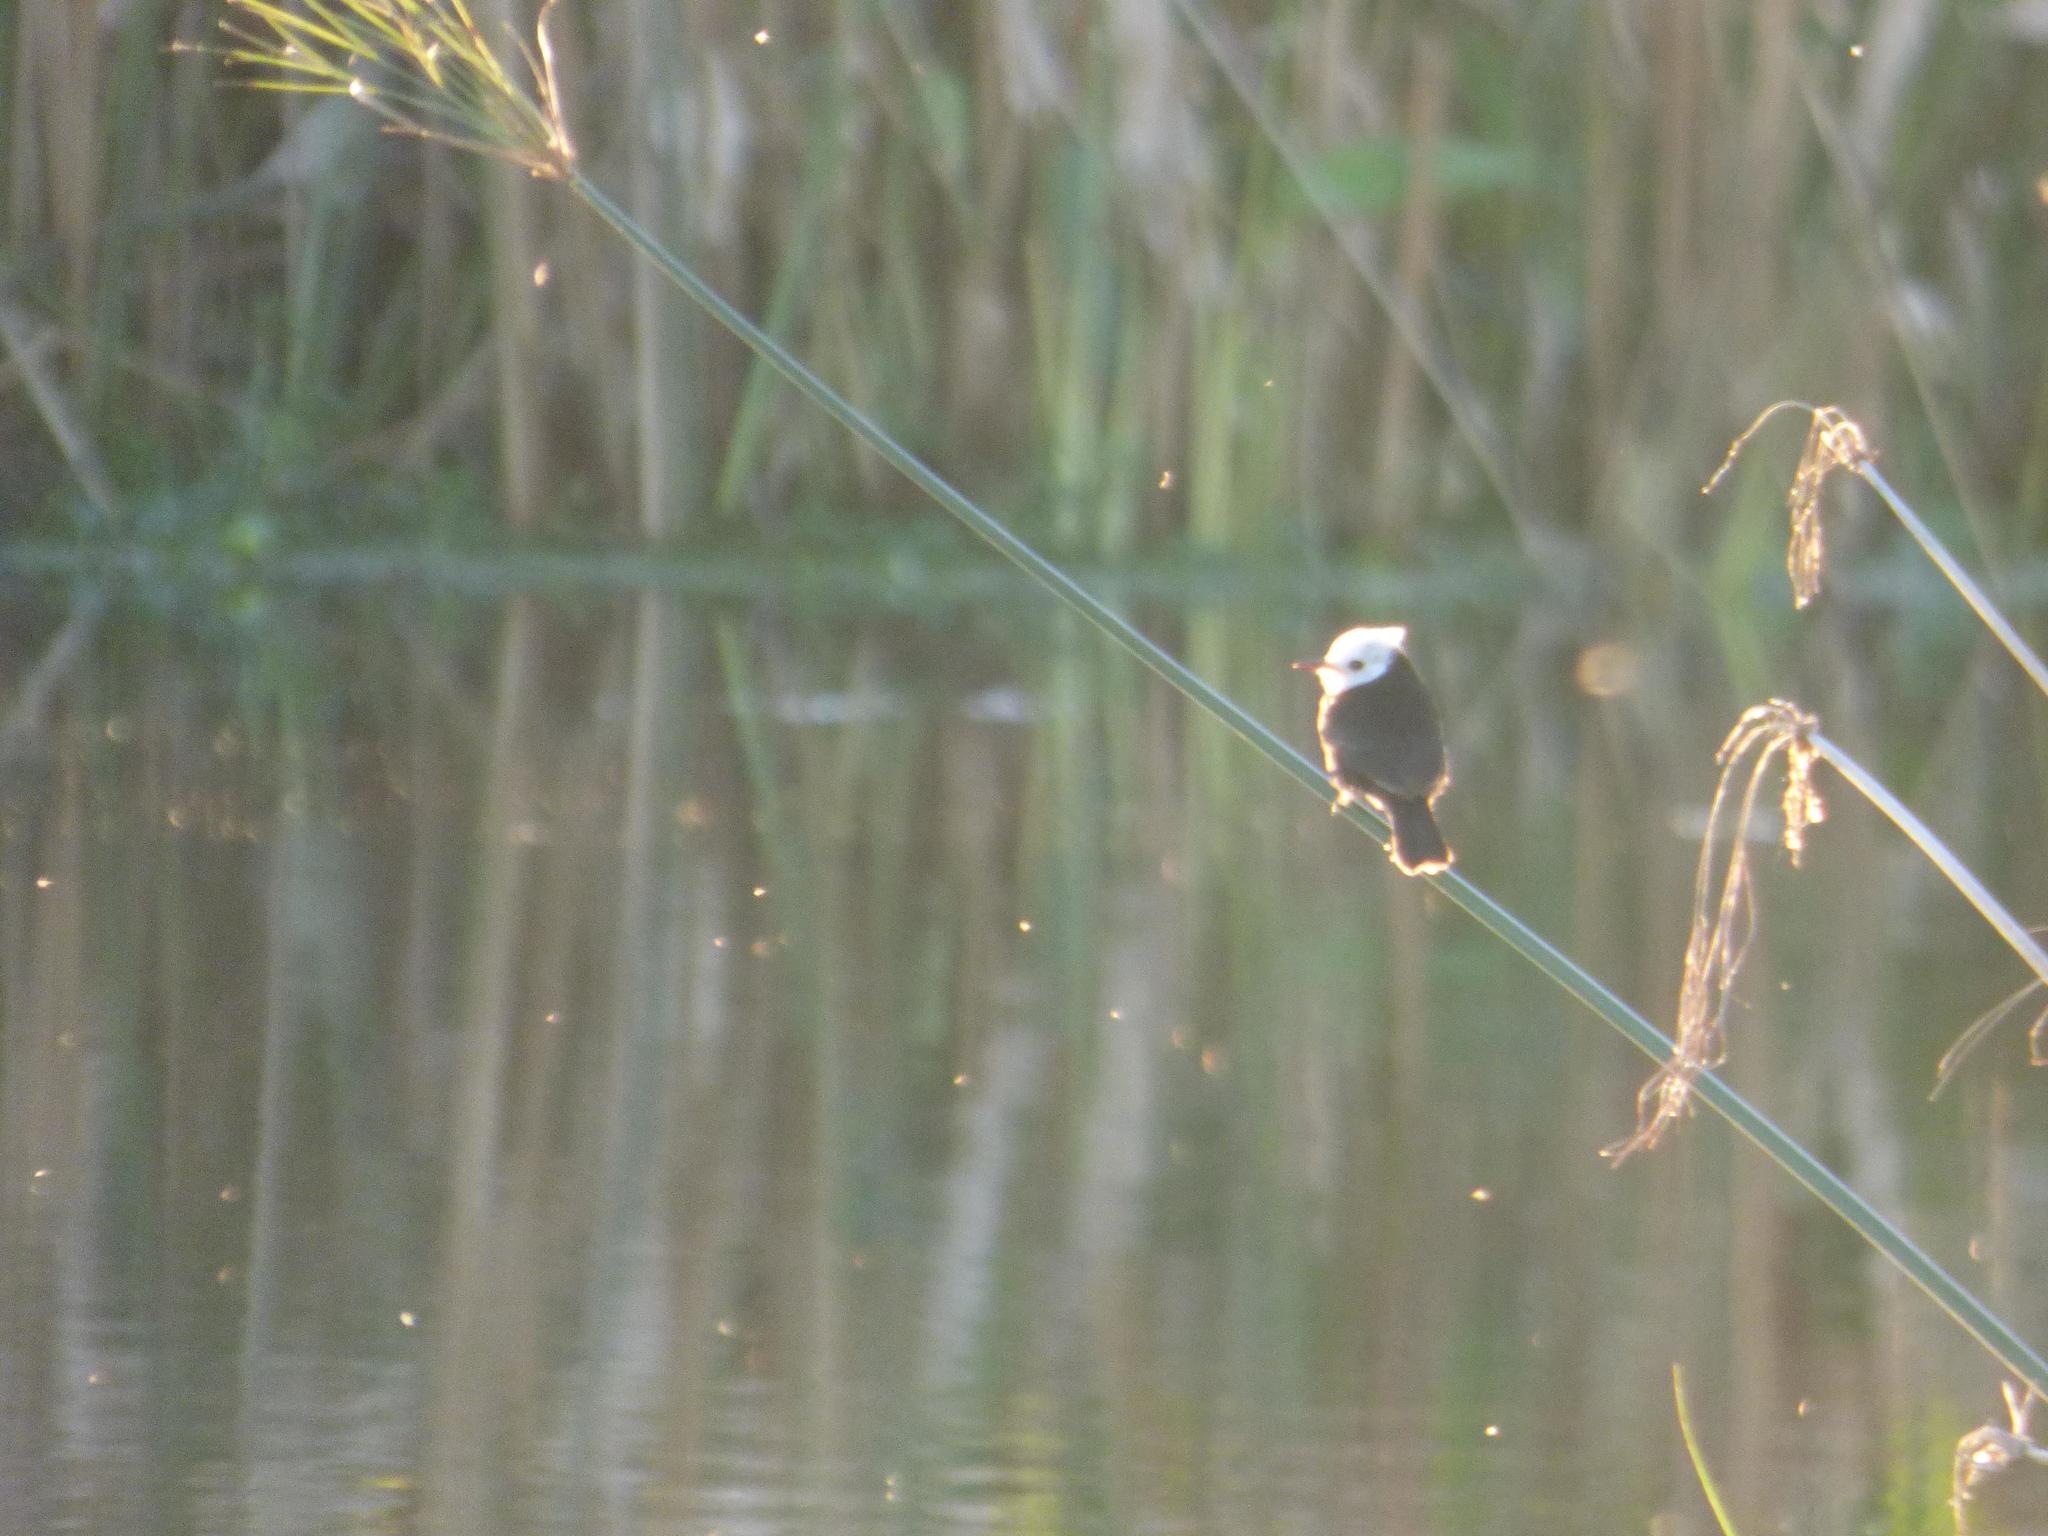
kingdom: Animalia
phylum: Chordata
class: Aves
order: Passeriformes
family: Tyrannidae
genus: Arundinicola
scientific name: Arundinicola leucocephala
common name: White-headed marsh tyrant
